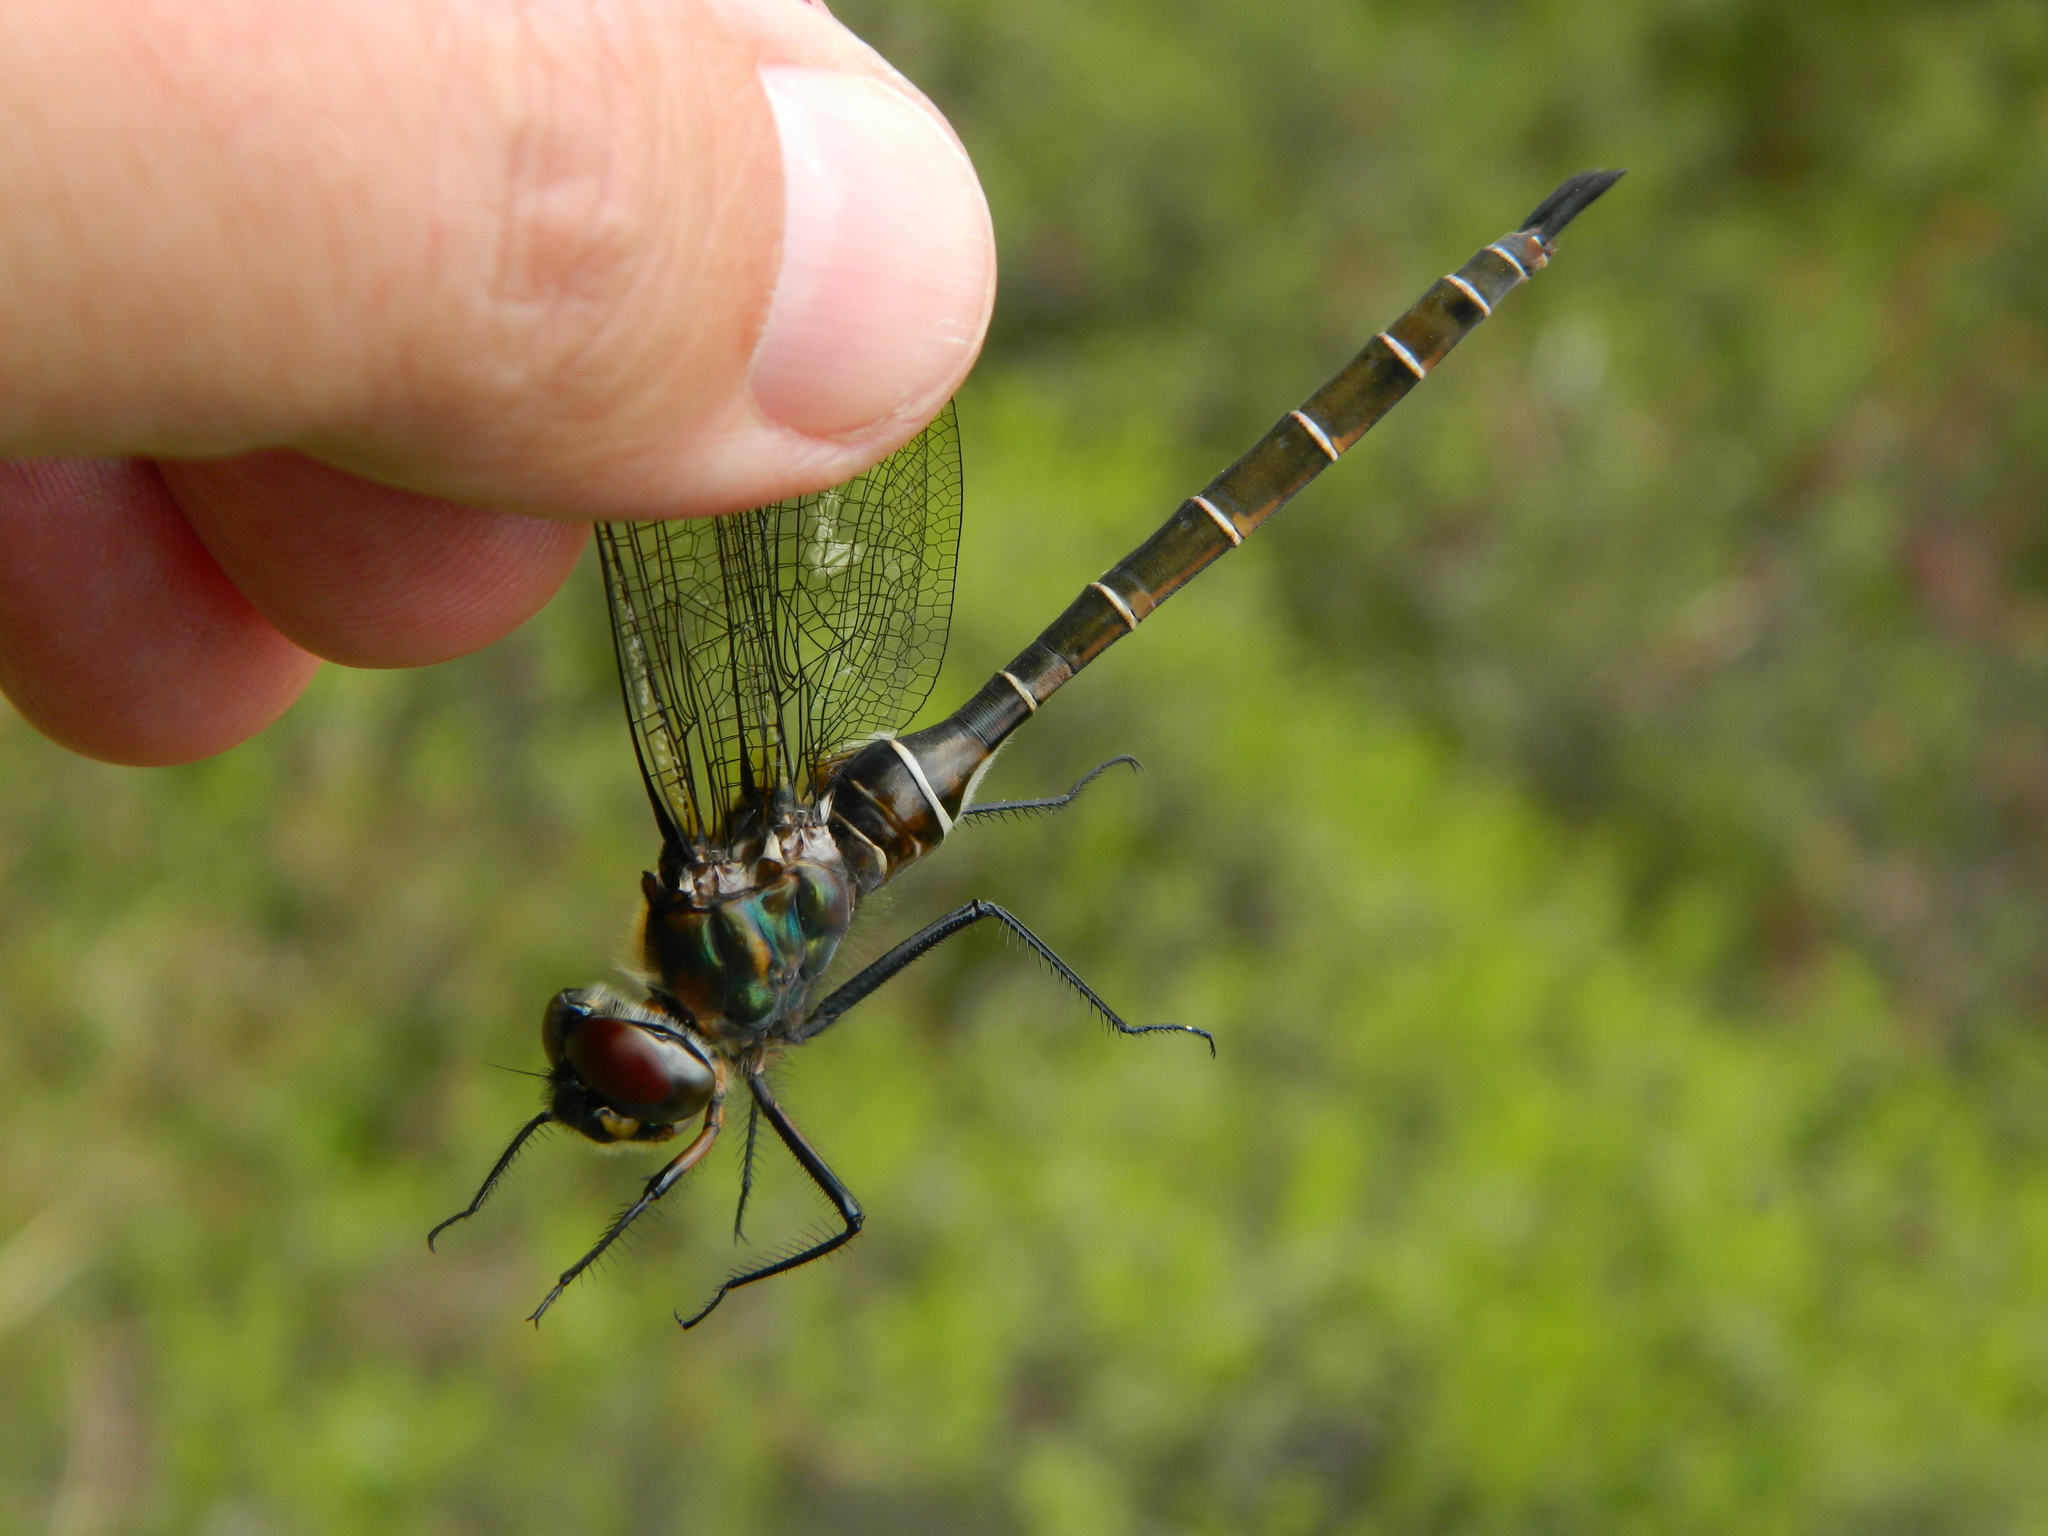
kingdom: Animalia
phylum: Arthropoda
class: Insecta
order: Odonata
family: Corduliidae
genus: Somatochlora
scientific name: Somatochlora cingulata
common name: Lake emerald
